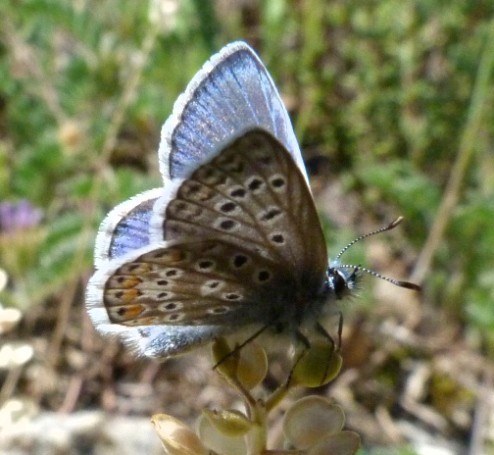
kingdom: Animalia
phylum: Arthropoda
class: Insecta
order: Lepidoptera
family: Lycaenidae
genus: Polyommatus
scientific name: Polyommatus icarus
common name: Common blue
